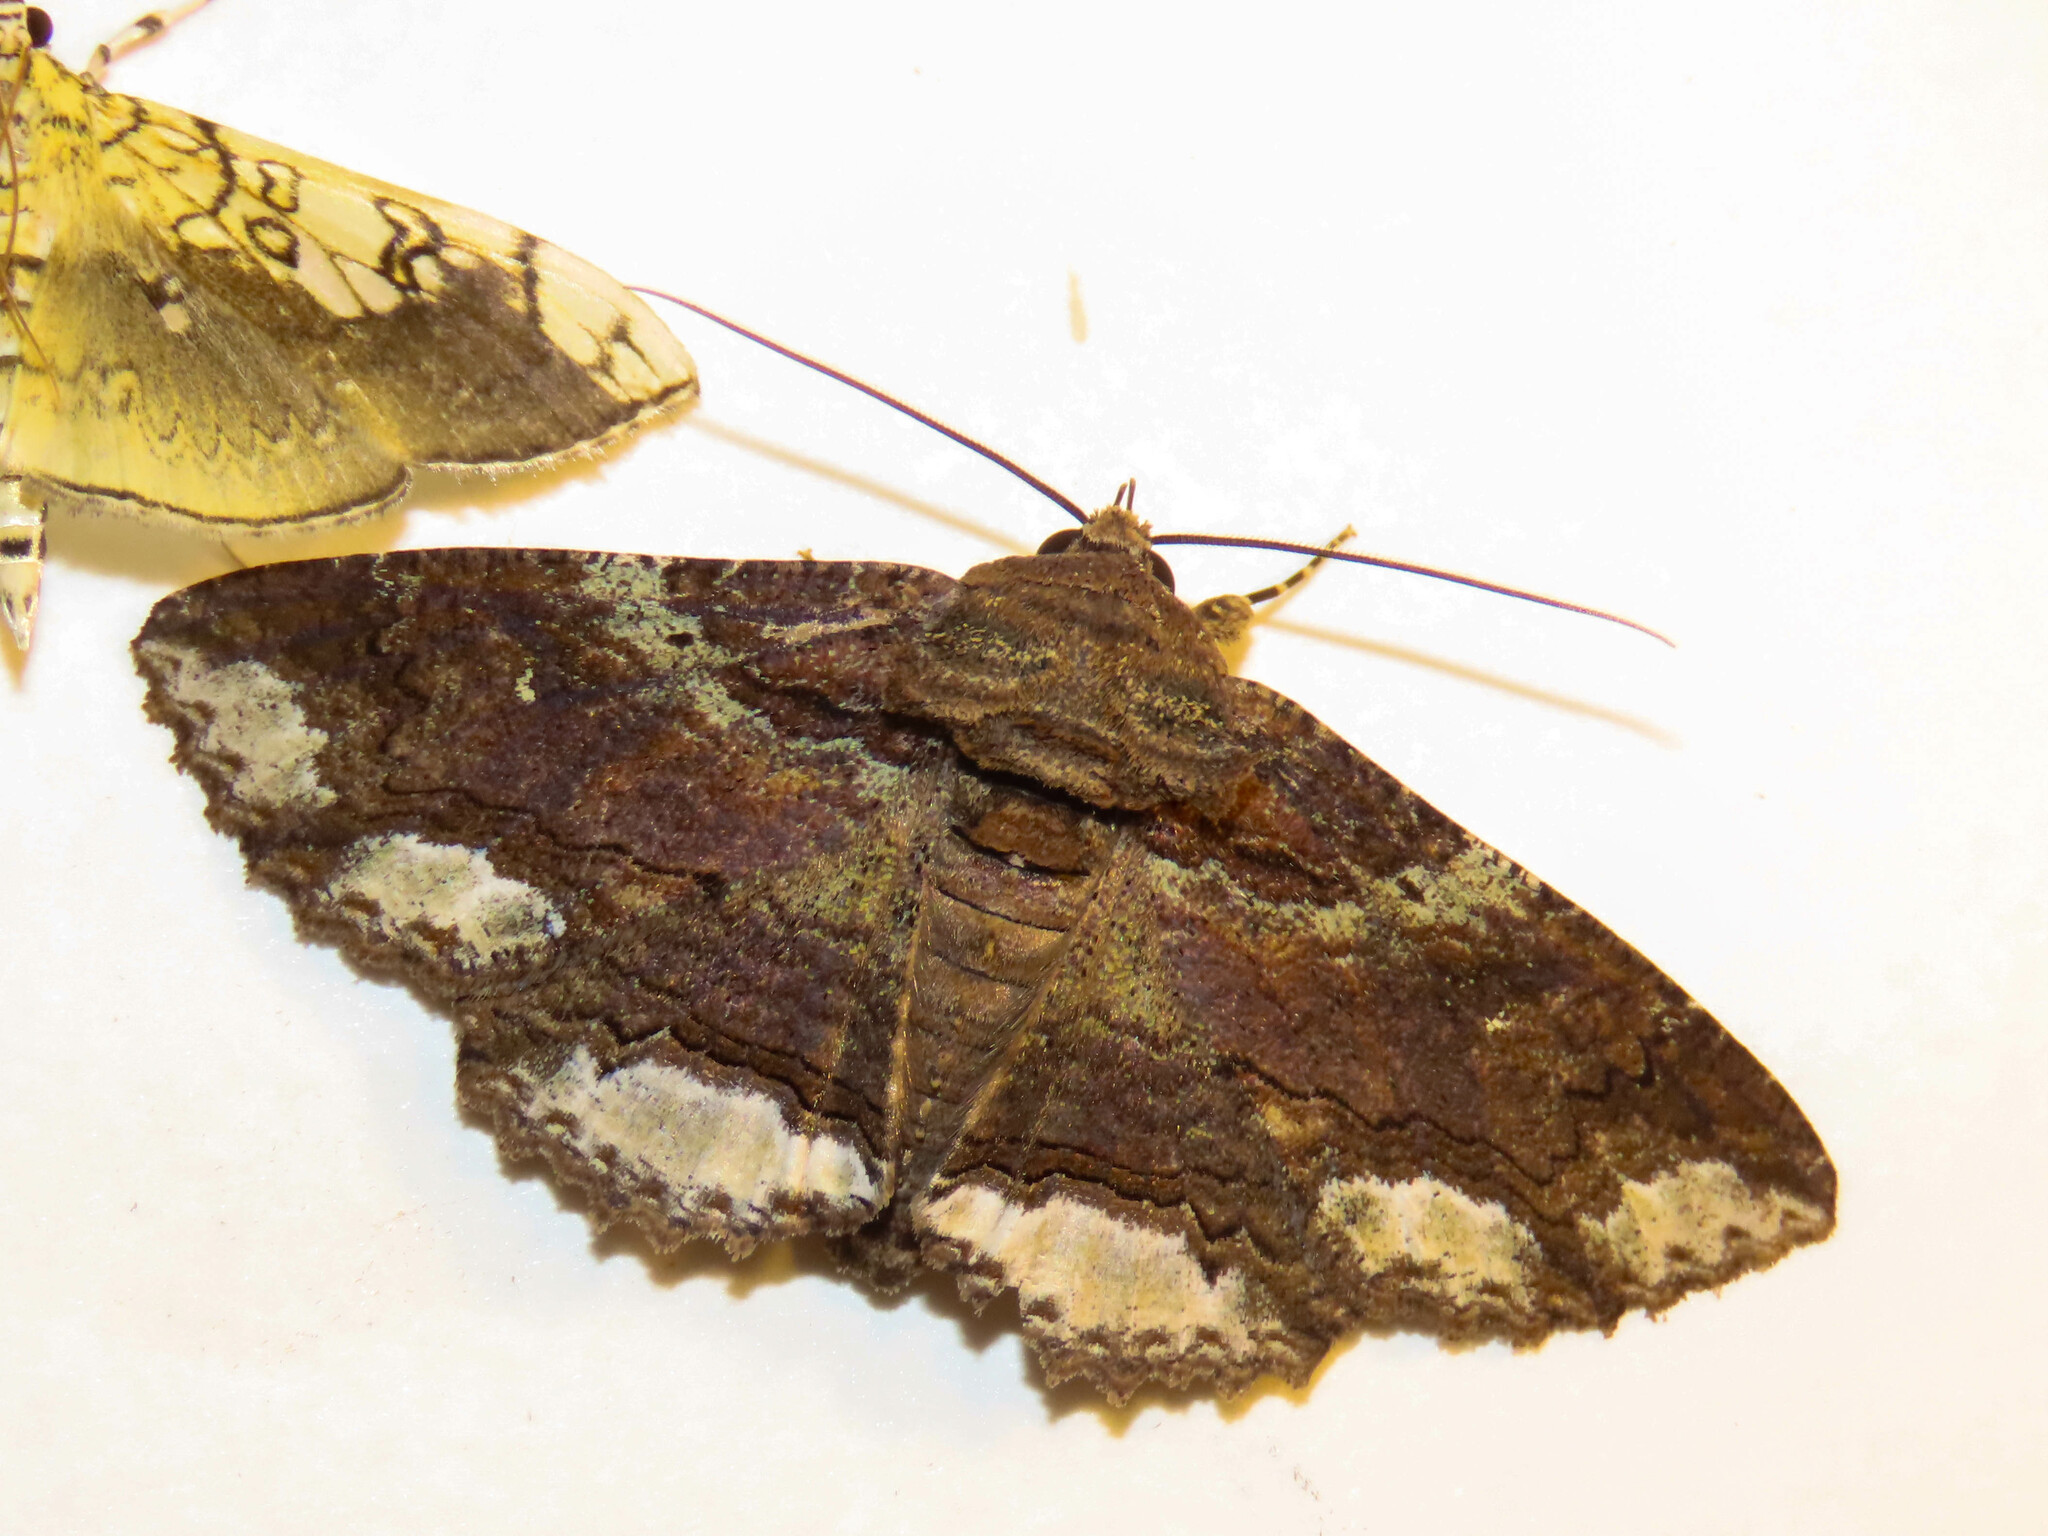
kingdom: Animalia
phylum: Arthropoda
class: Insecta
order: Lepidoptera
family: Erebidae
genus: Zale
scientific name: Zale lunata
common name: Lunate zale moth
